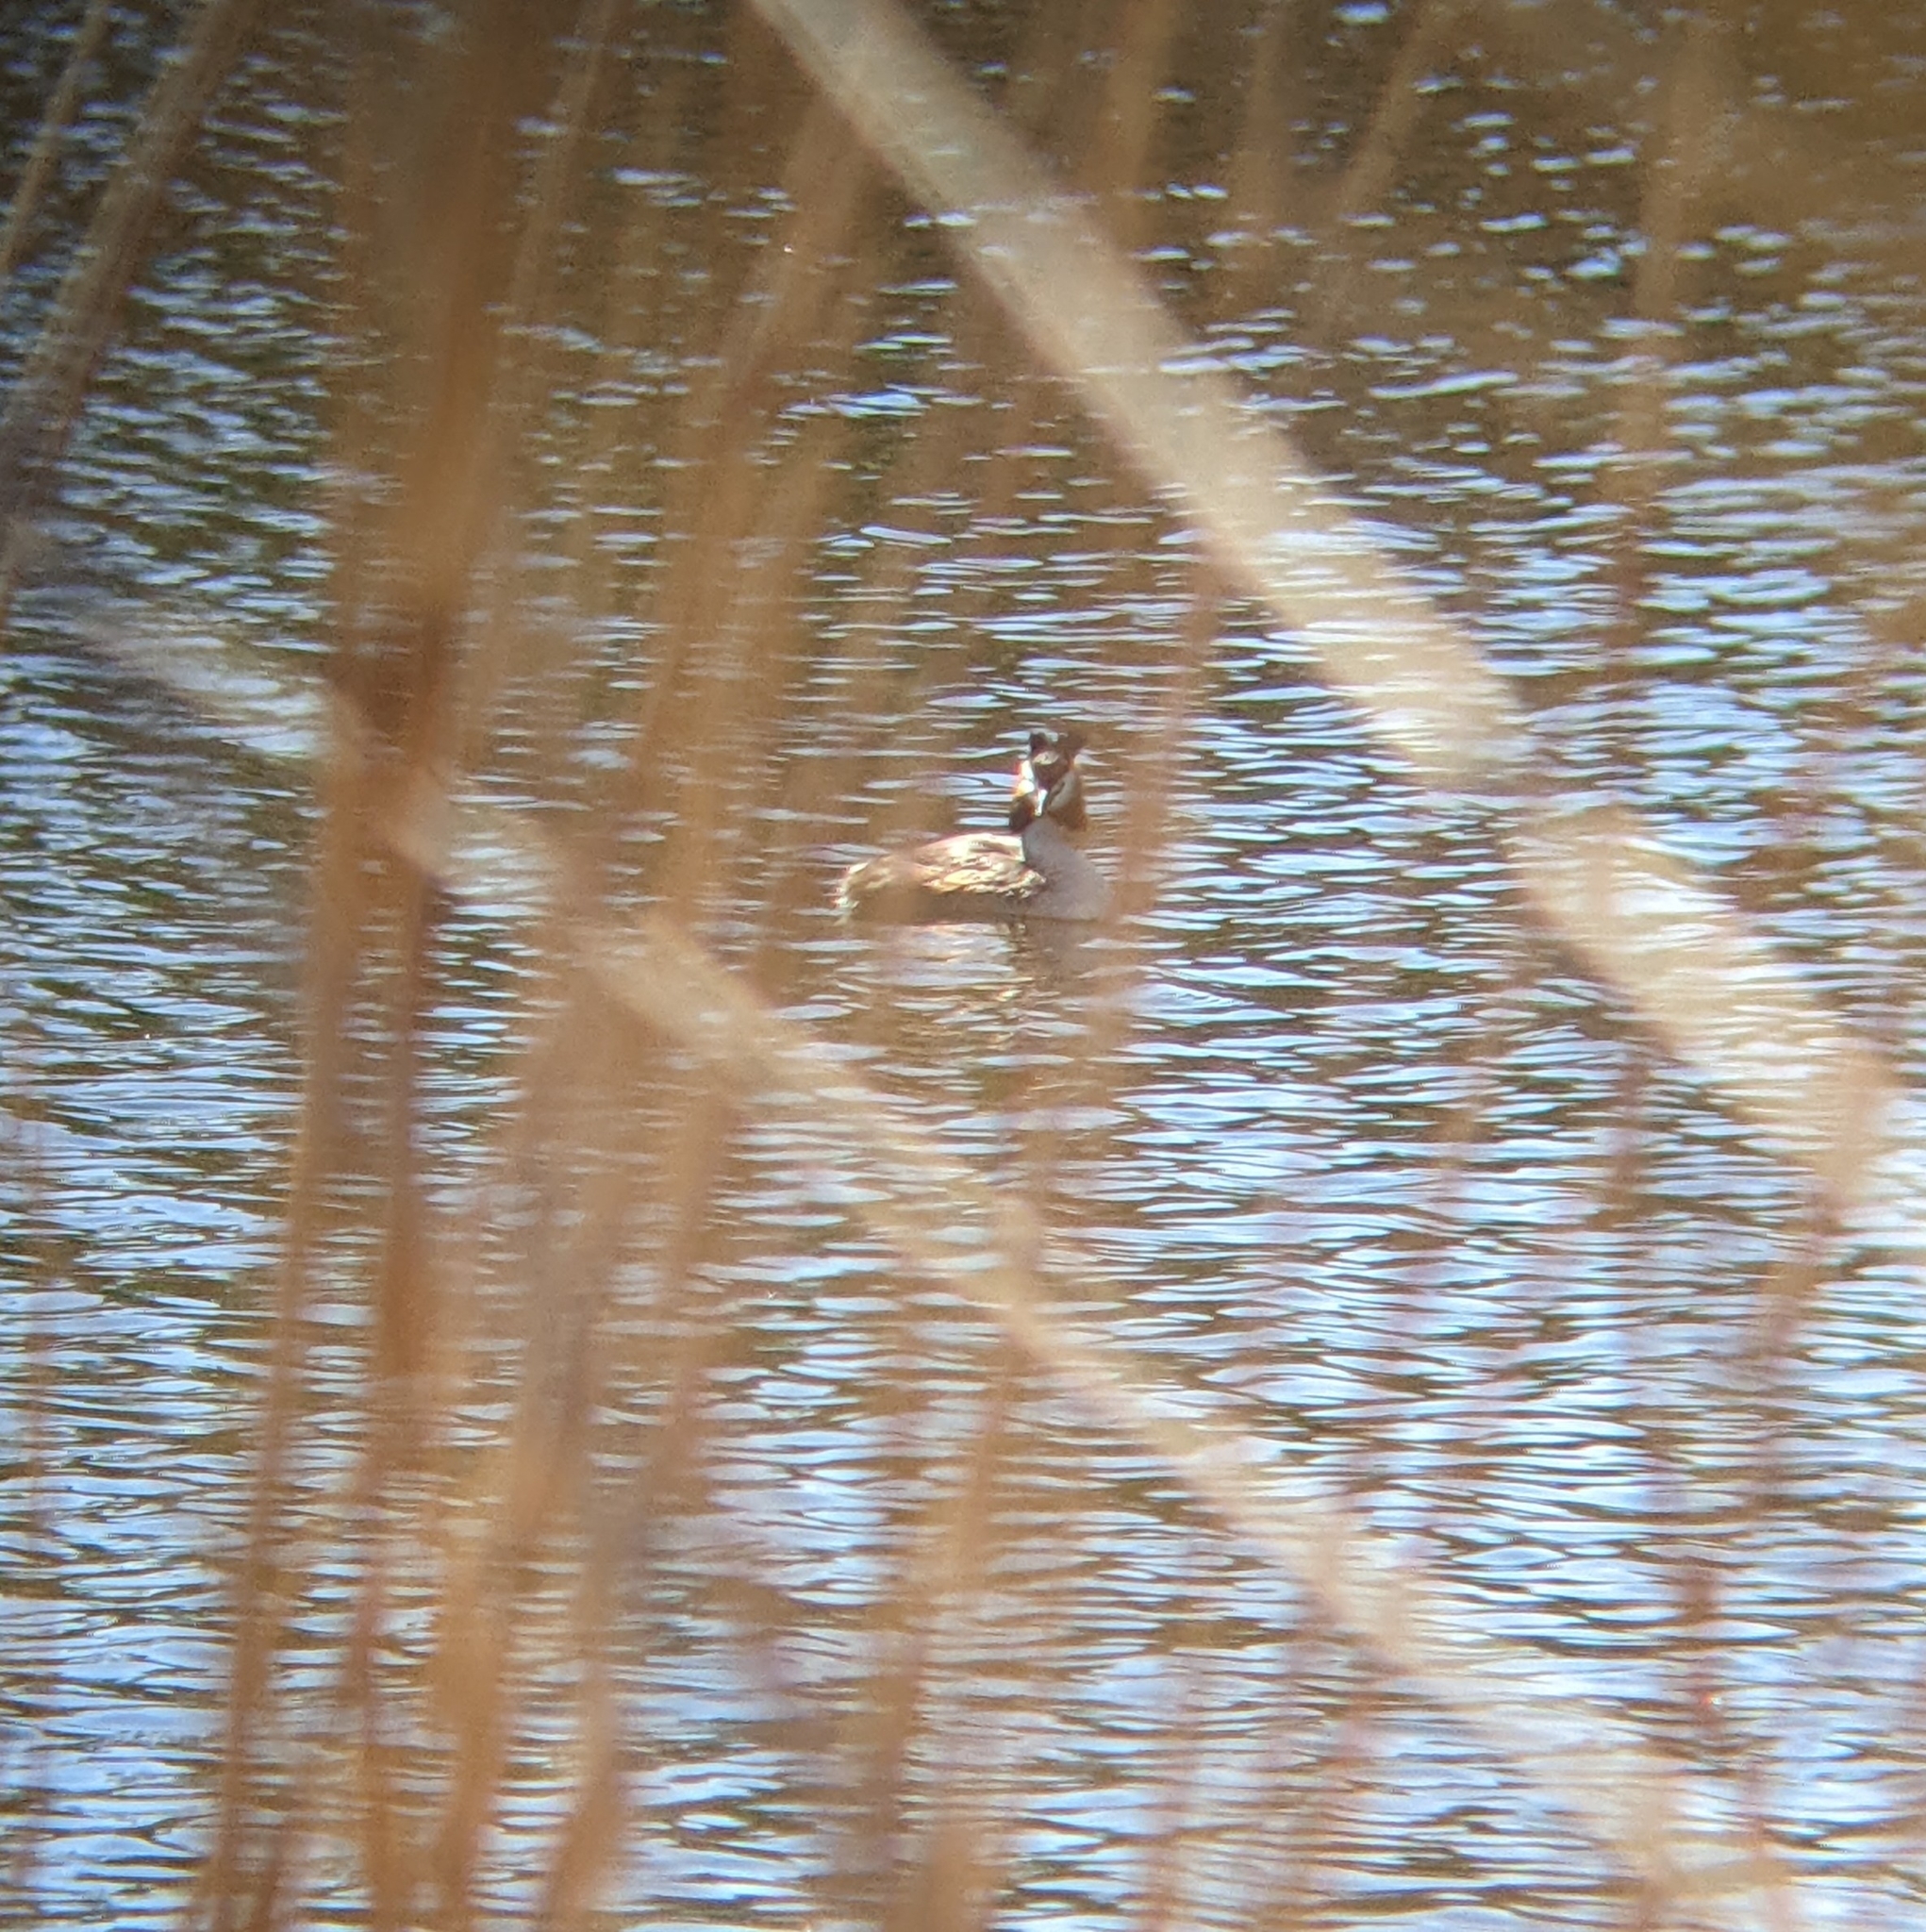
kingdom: Animalia
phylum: Chordata
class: Aves
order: Podicipediformes
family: Podicipedidae
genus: Podiceps
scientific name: Podiceps cristatus
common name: Great crested grebe
